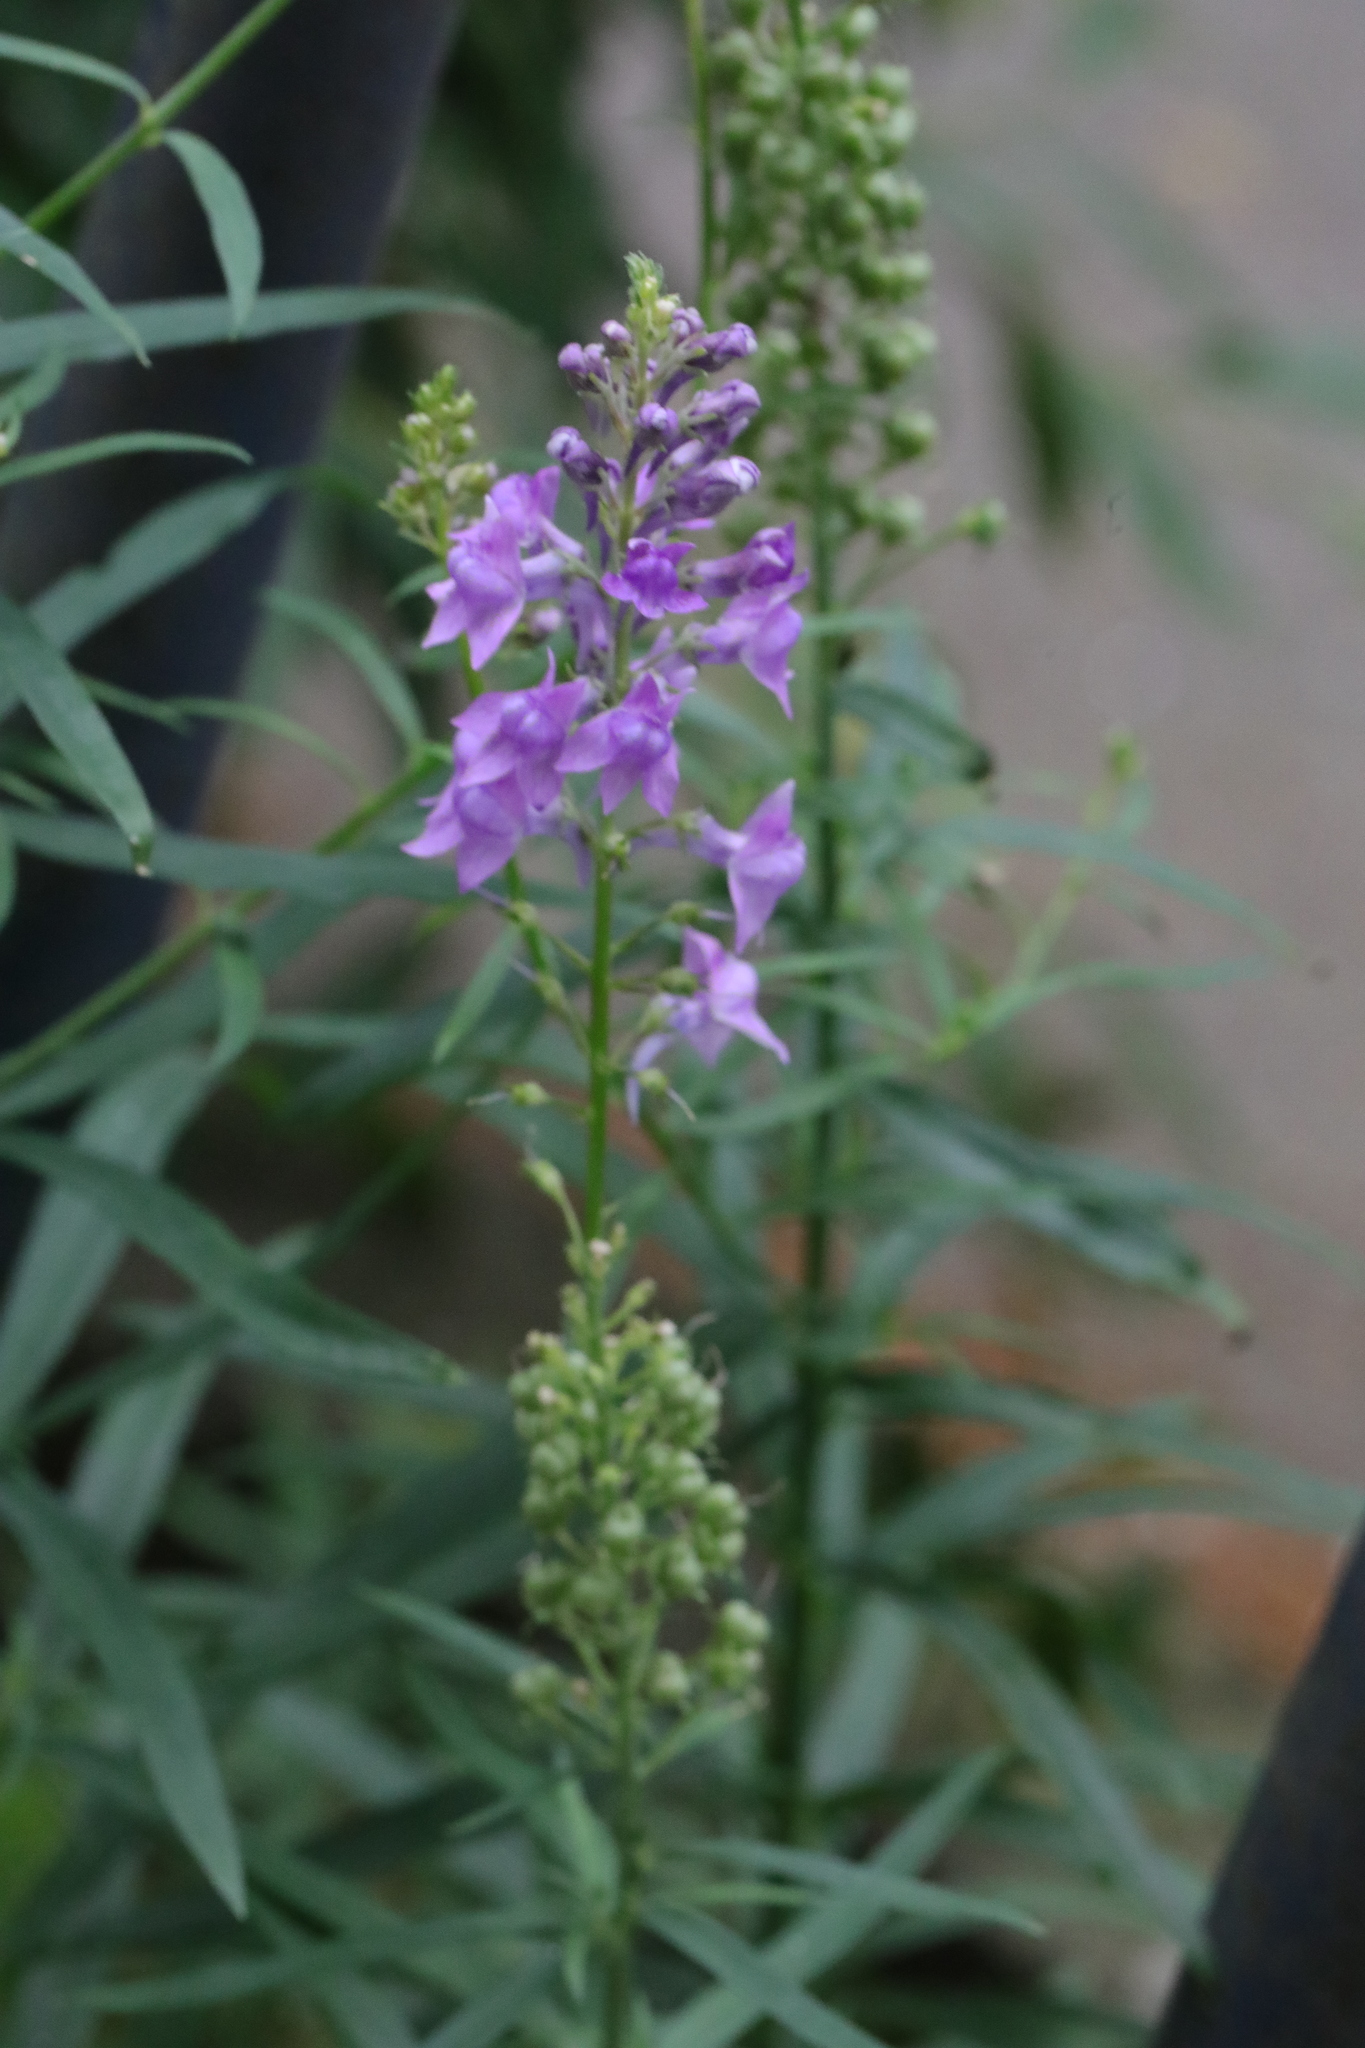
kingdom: Plantae
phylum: Tracheophyta
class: Magnoliopsida
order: Lamiales
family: Plantaginaceae
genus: Linaria
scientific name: Linaria purpurea
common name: Purple toadflax
